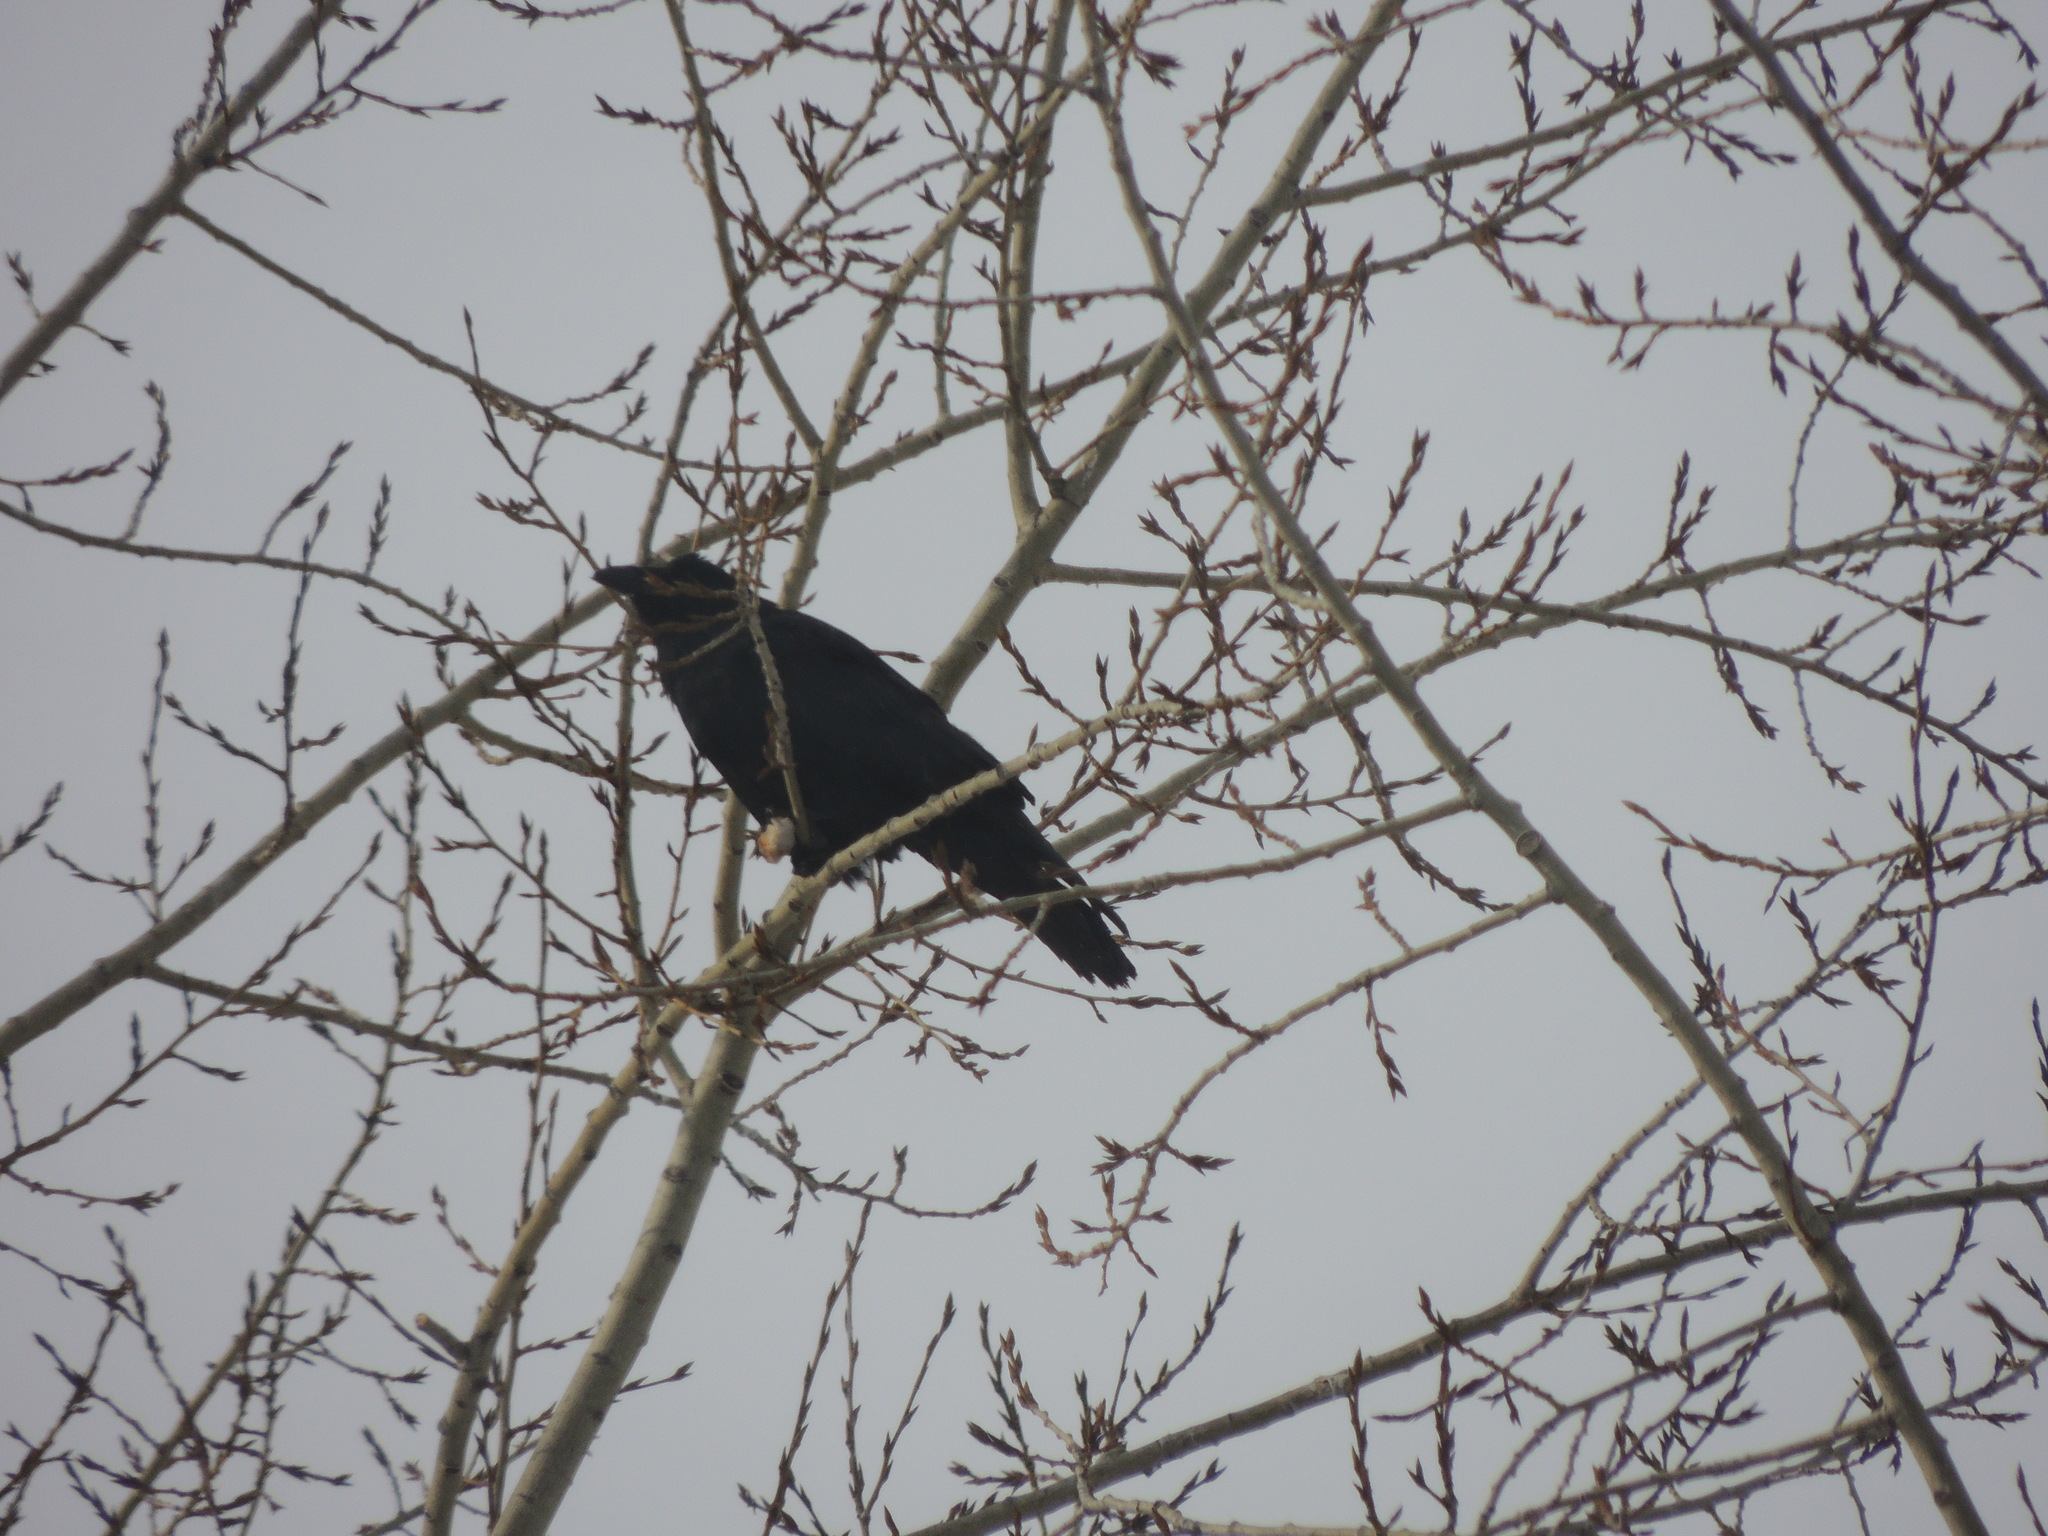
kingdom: Animalia
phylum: Chordata
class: Aves
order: Passeriformes
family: Corvidae
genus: Corvus
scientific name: Corvus corax
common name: Common raven
